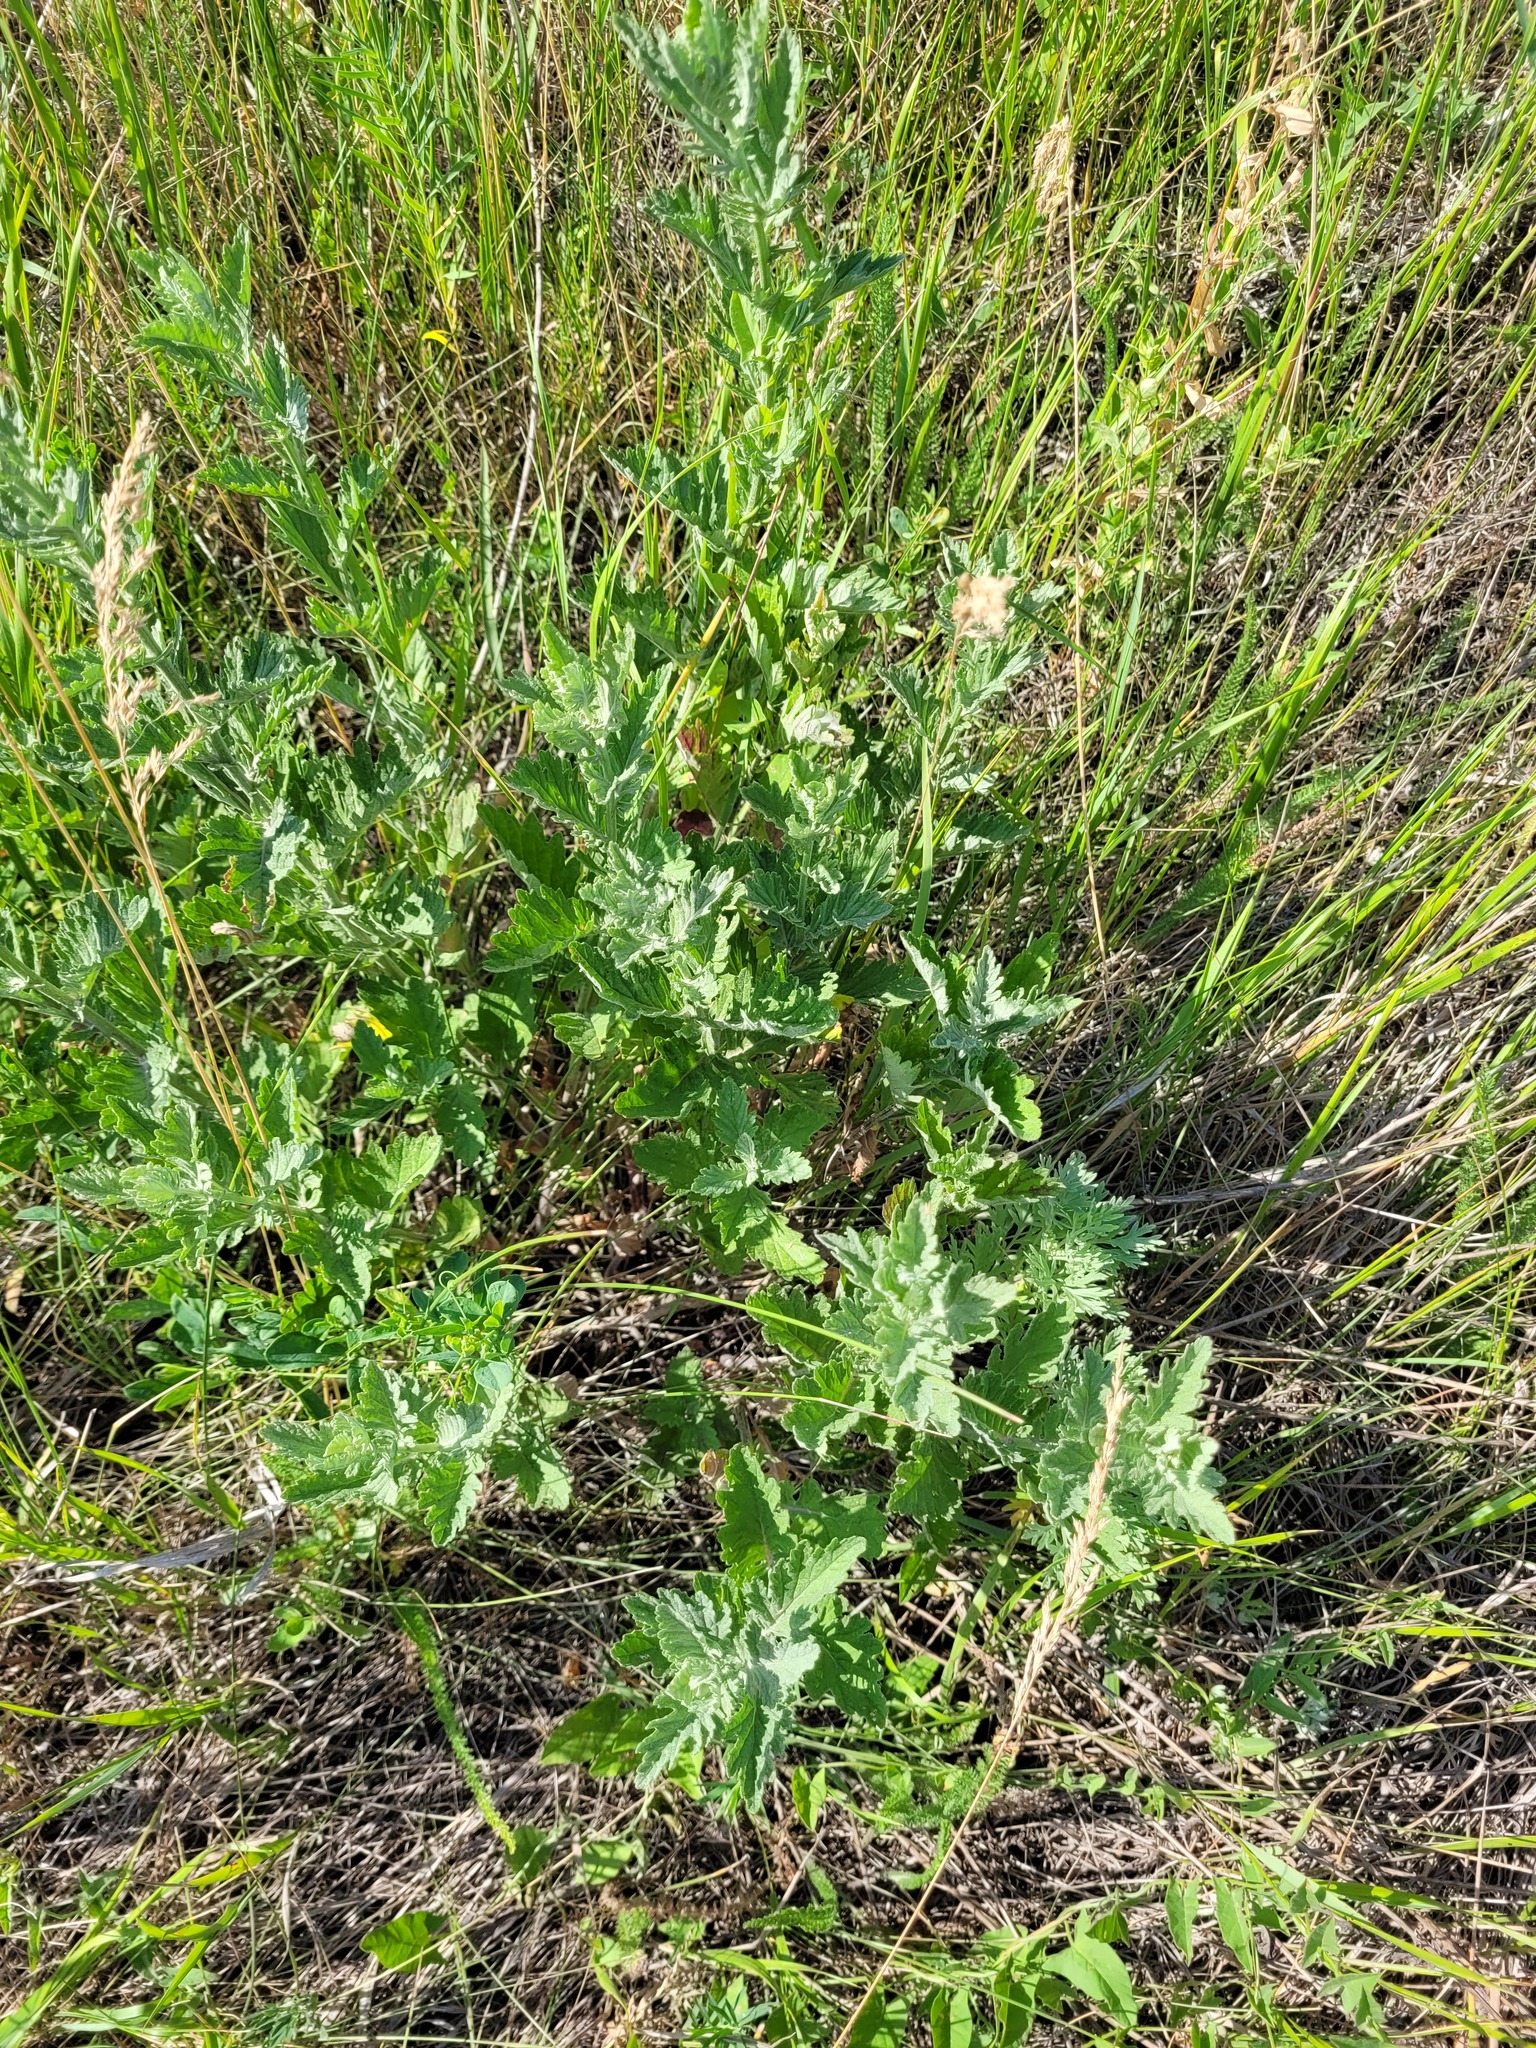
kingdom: Plantae
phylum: Tracheophyta
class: Magnoliopsida
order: Asterales
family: Asteraceae
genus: Jacobaea
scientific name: Jacobaea erucifolia
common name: Hoary ragwort
